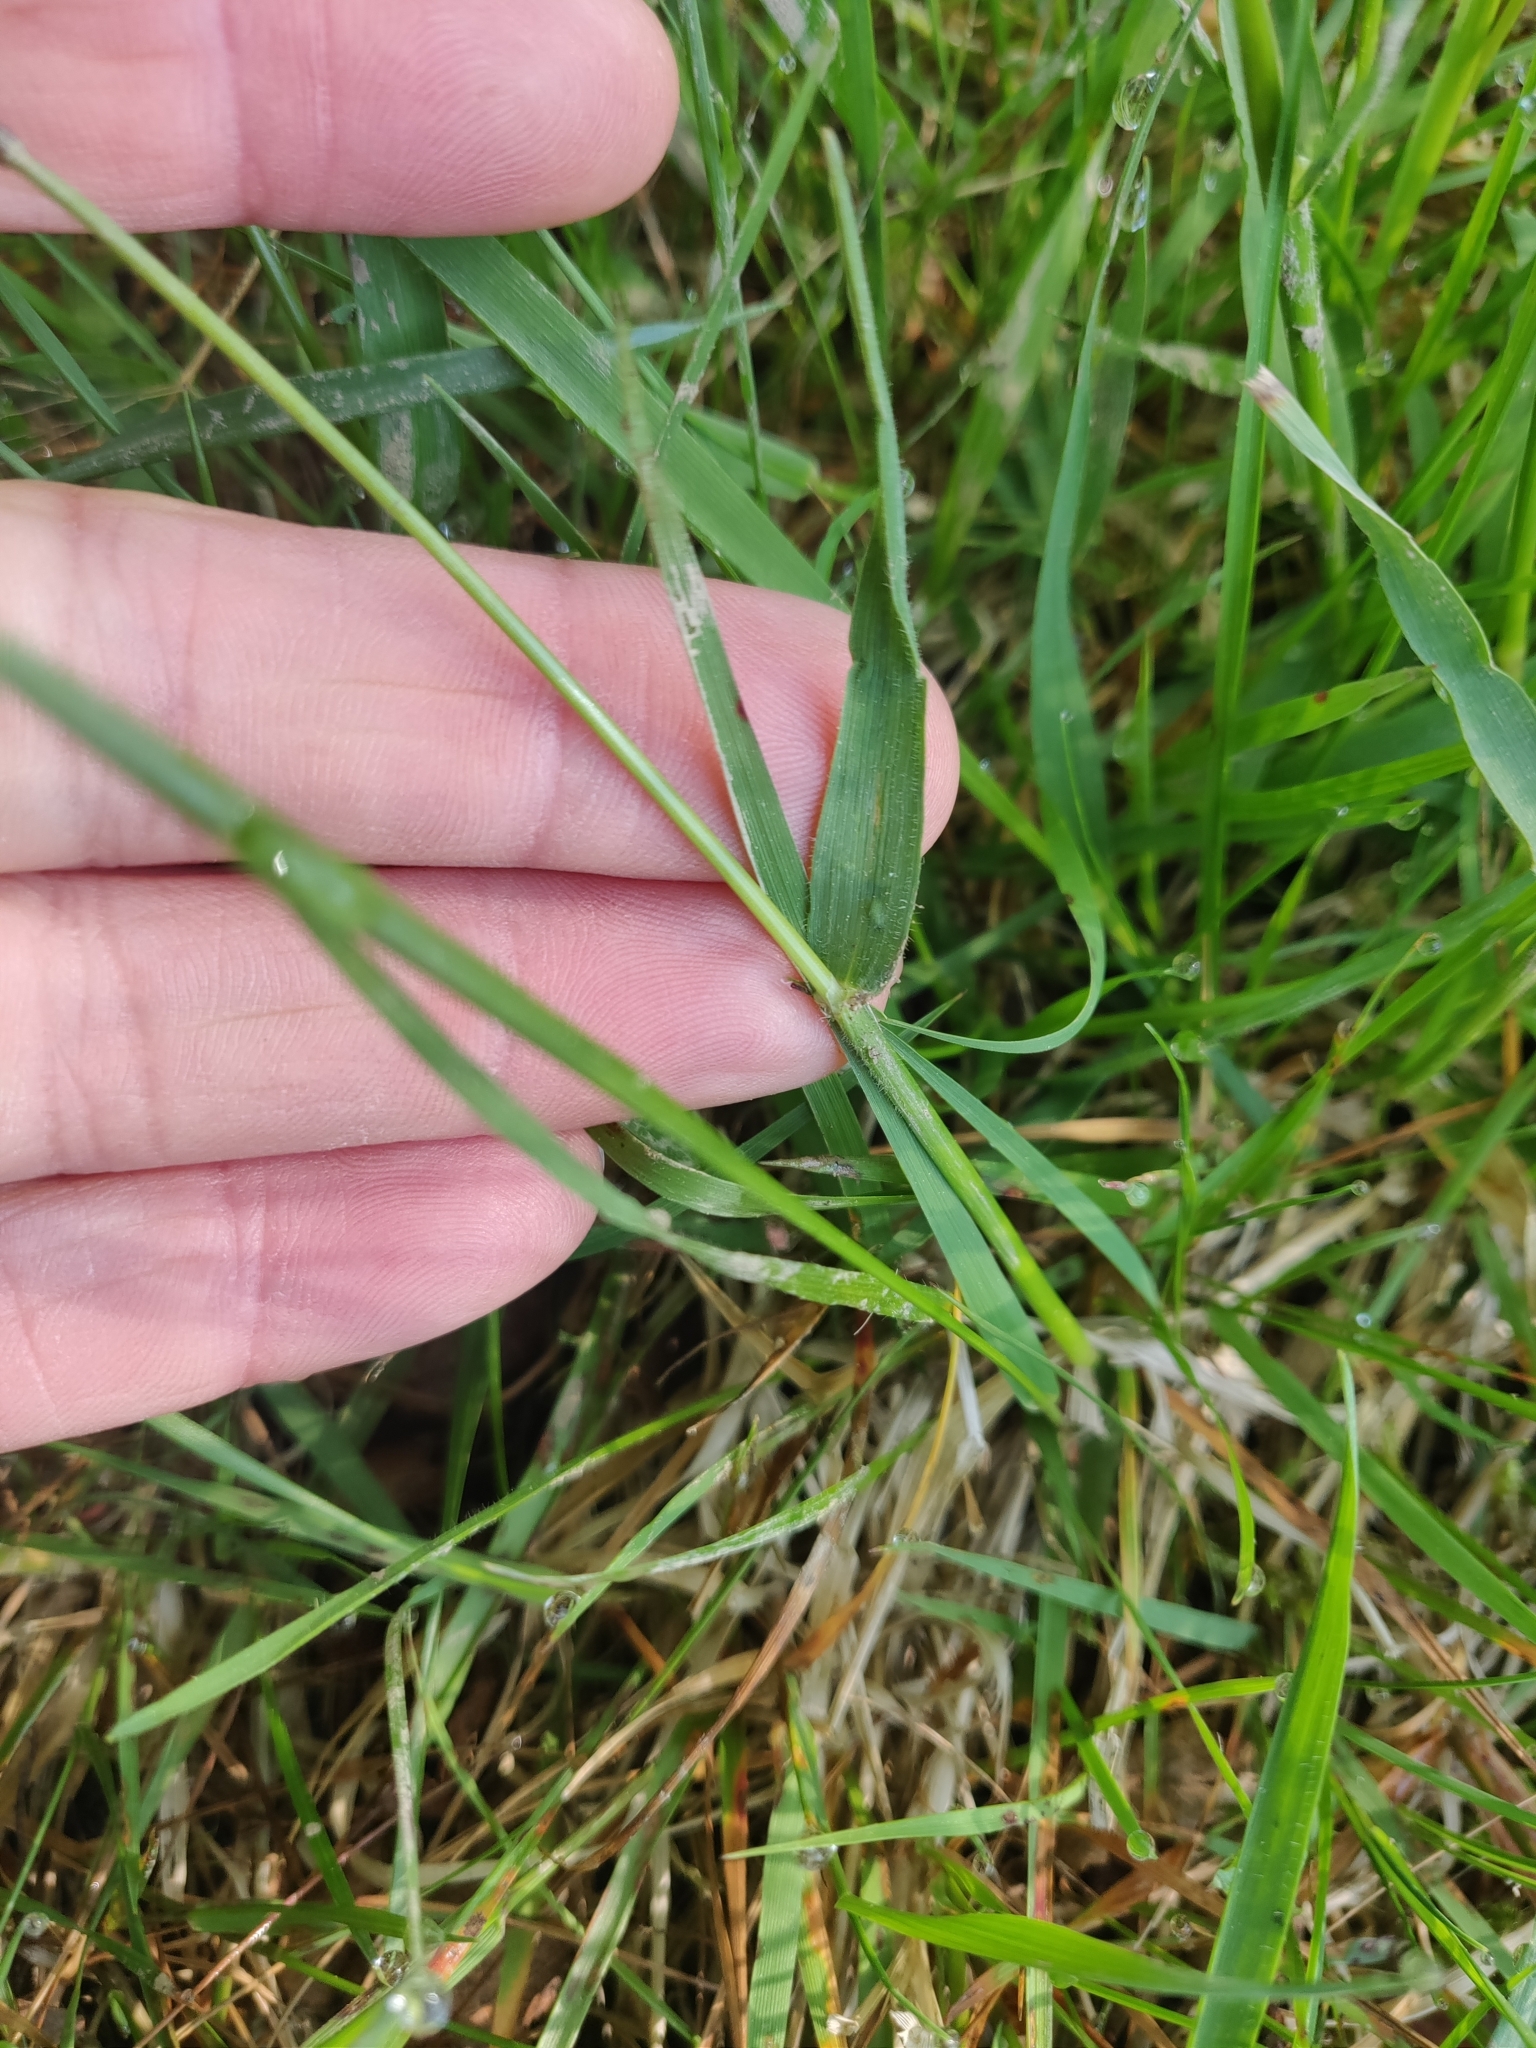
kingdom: Plantae
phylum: Tracheophyta
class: Liliopsida
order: Poales
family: Poaceae
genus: Anthoxanthum
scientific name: Anthoxanthum odoratum
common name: Sweet vernalgrass
